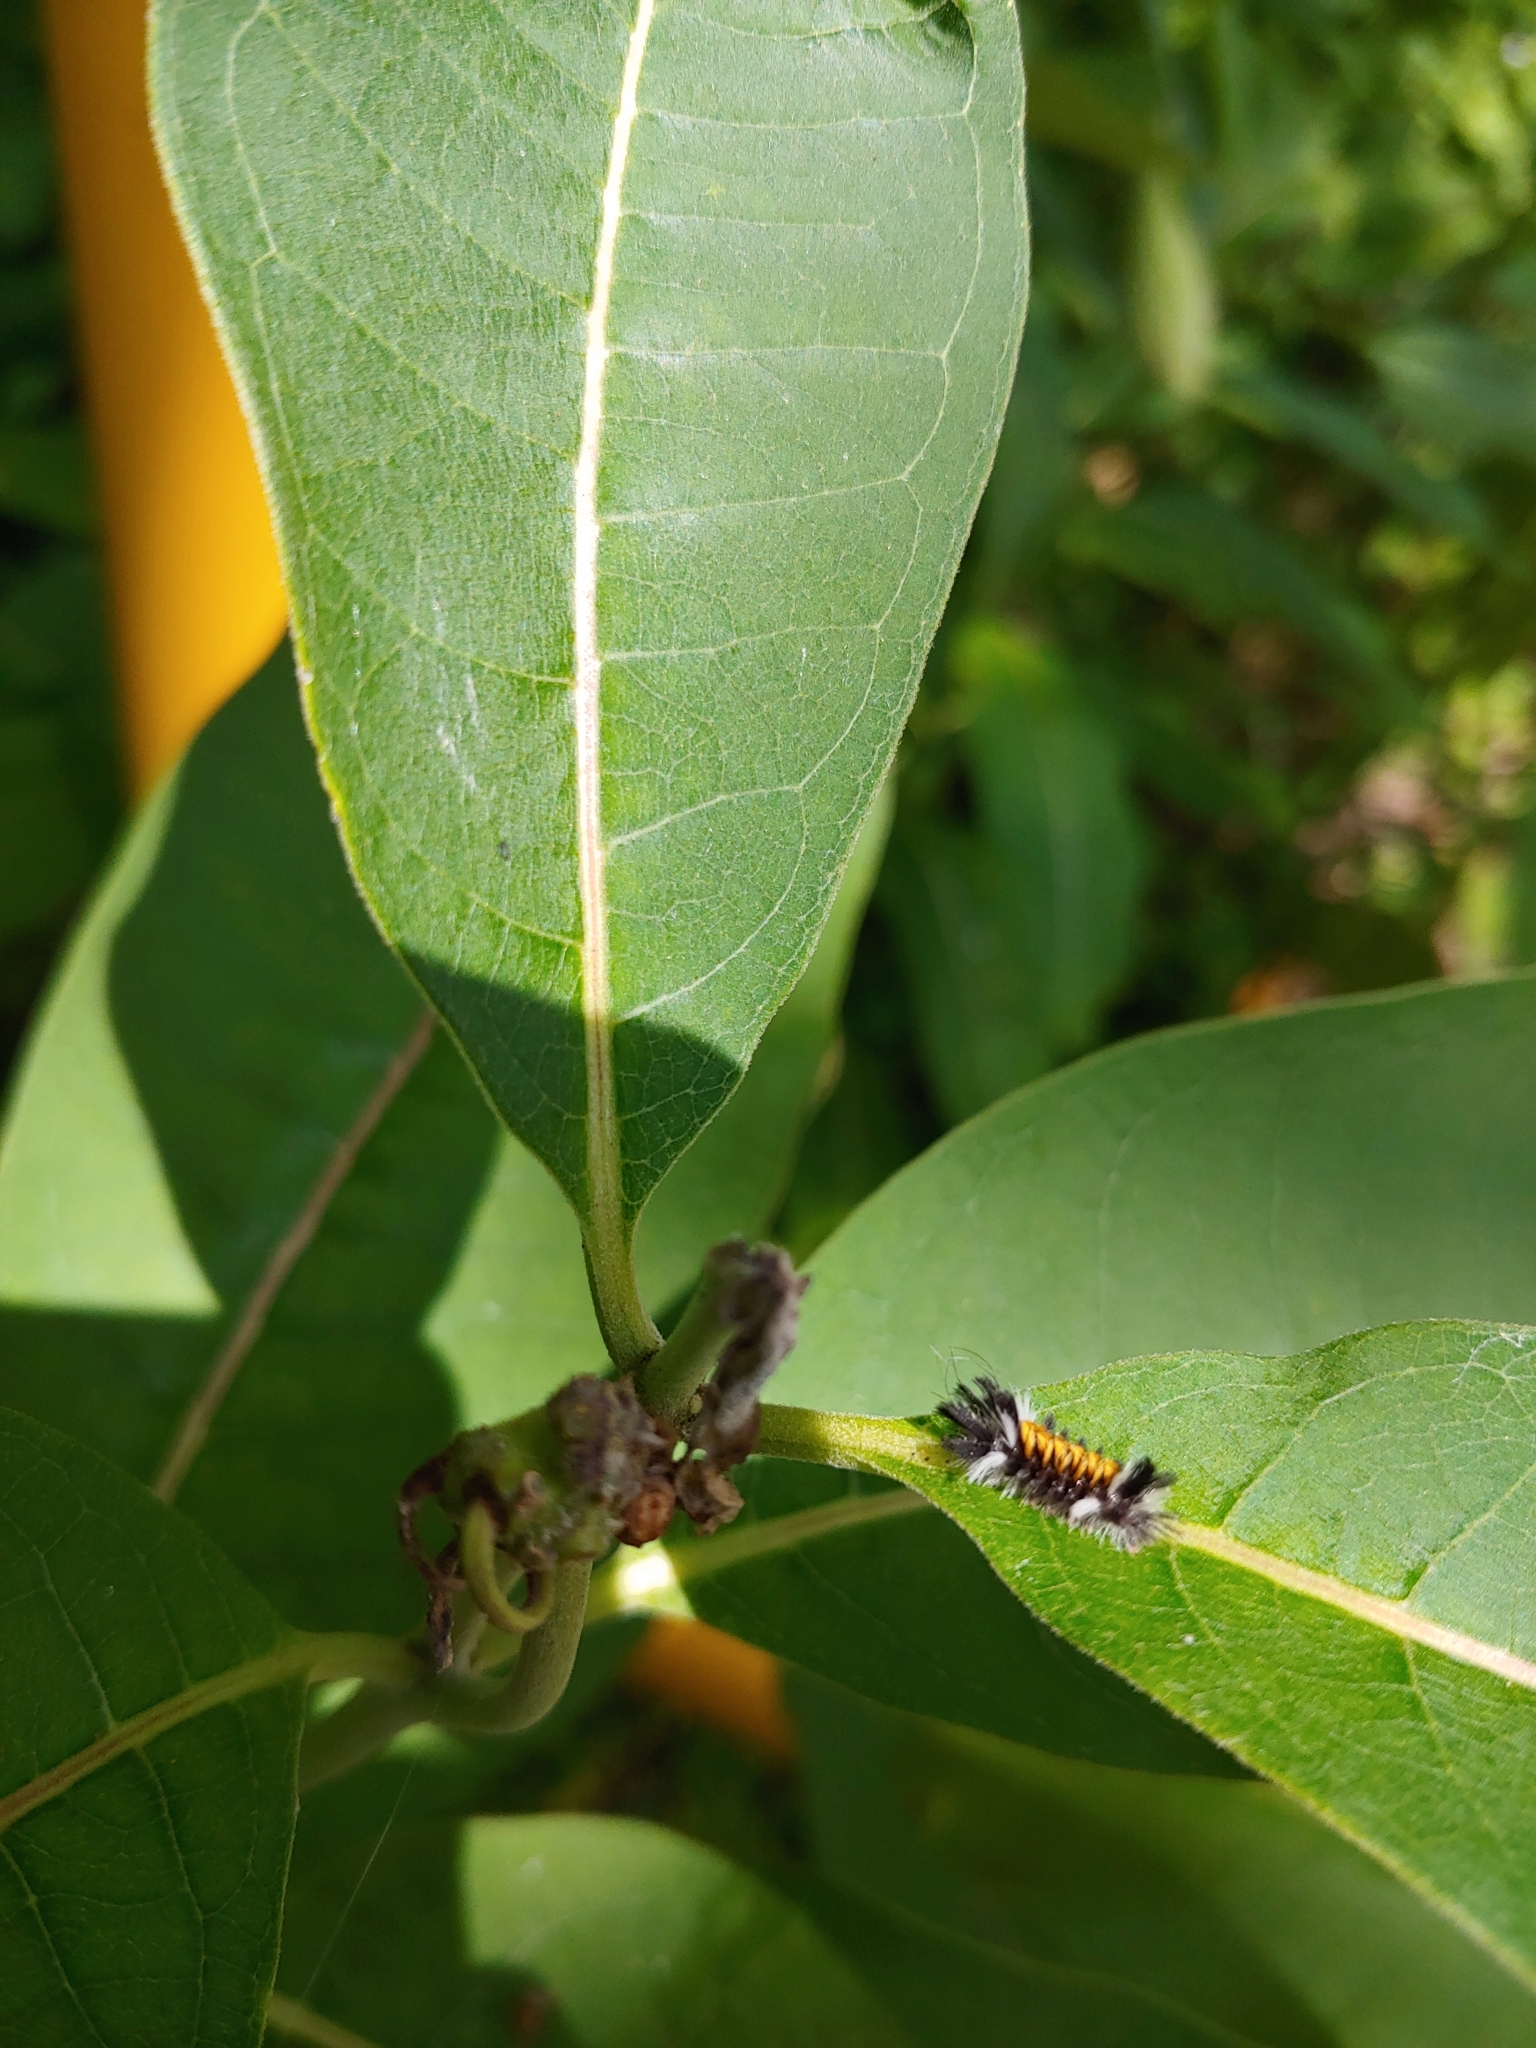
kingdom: Animalia
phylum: Arthropoda
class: Insecta
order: Lepidoptera
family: Erebidae
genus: Euchaetes
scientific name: Euchaetes egle
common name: Milkweed tussock moth
